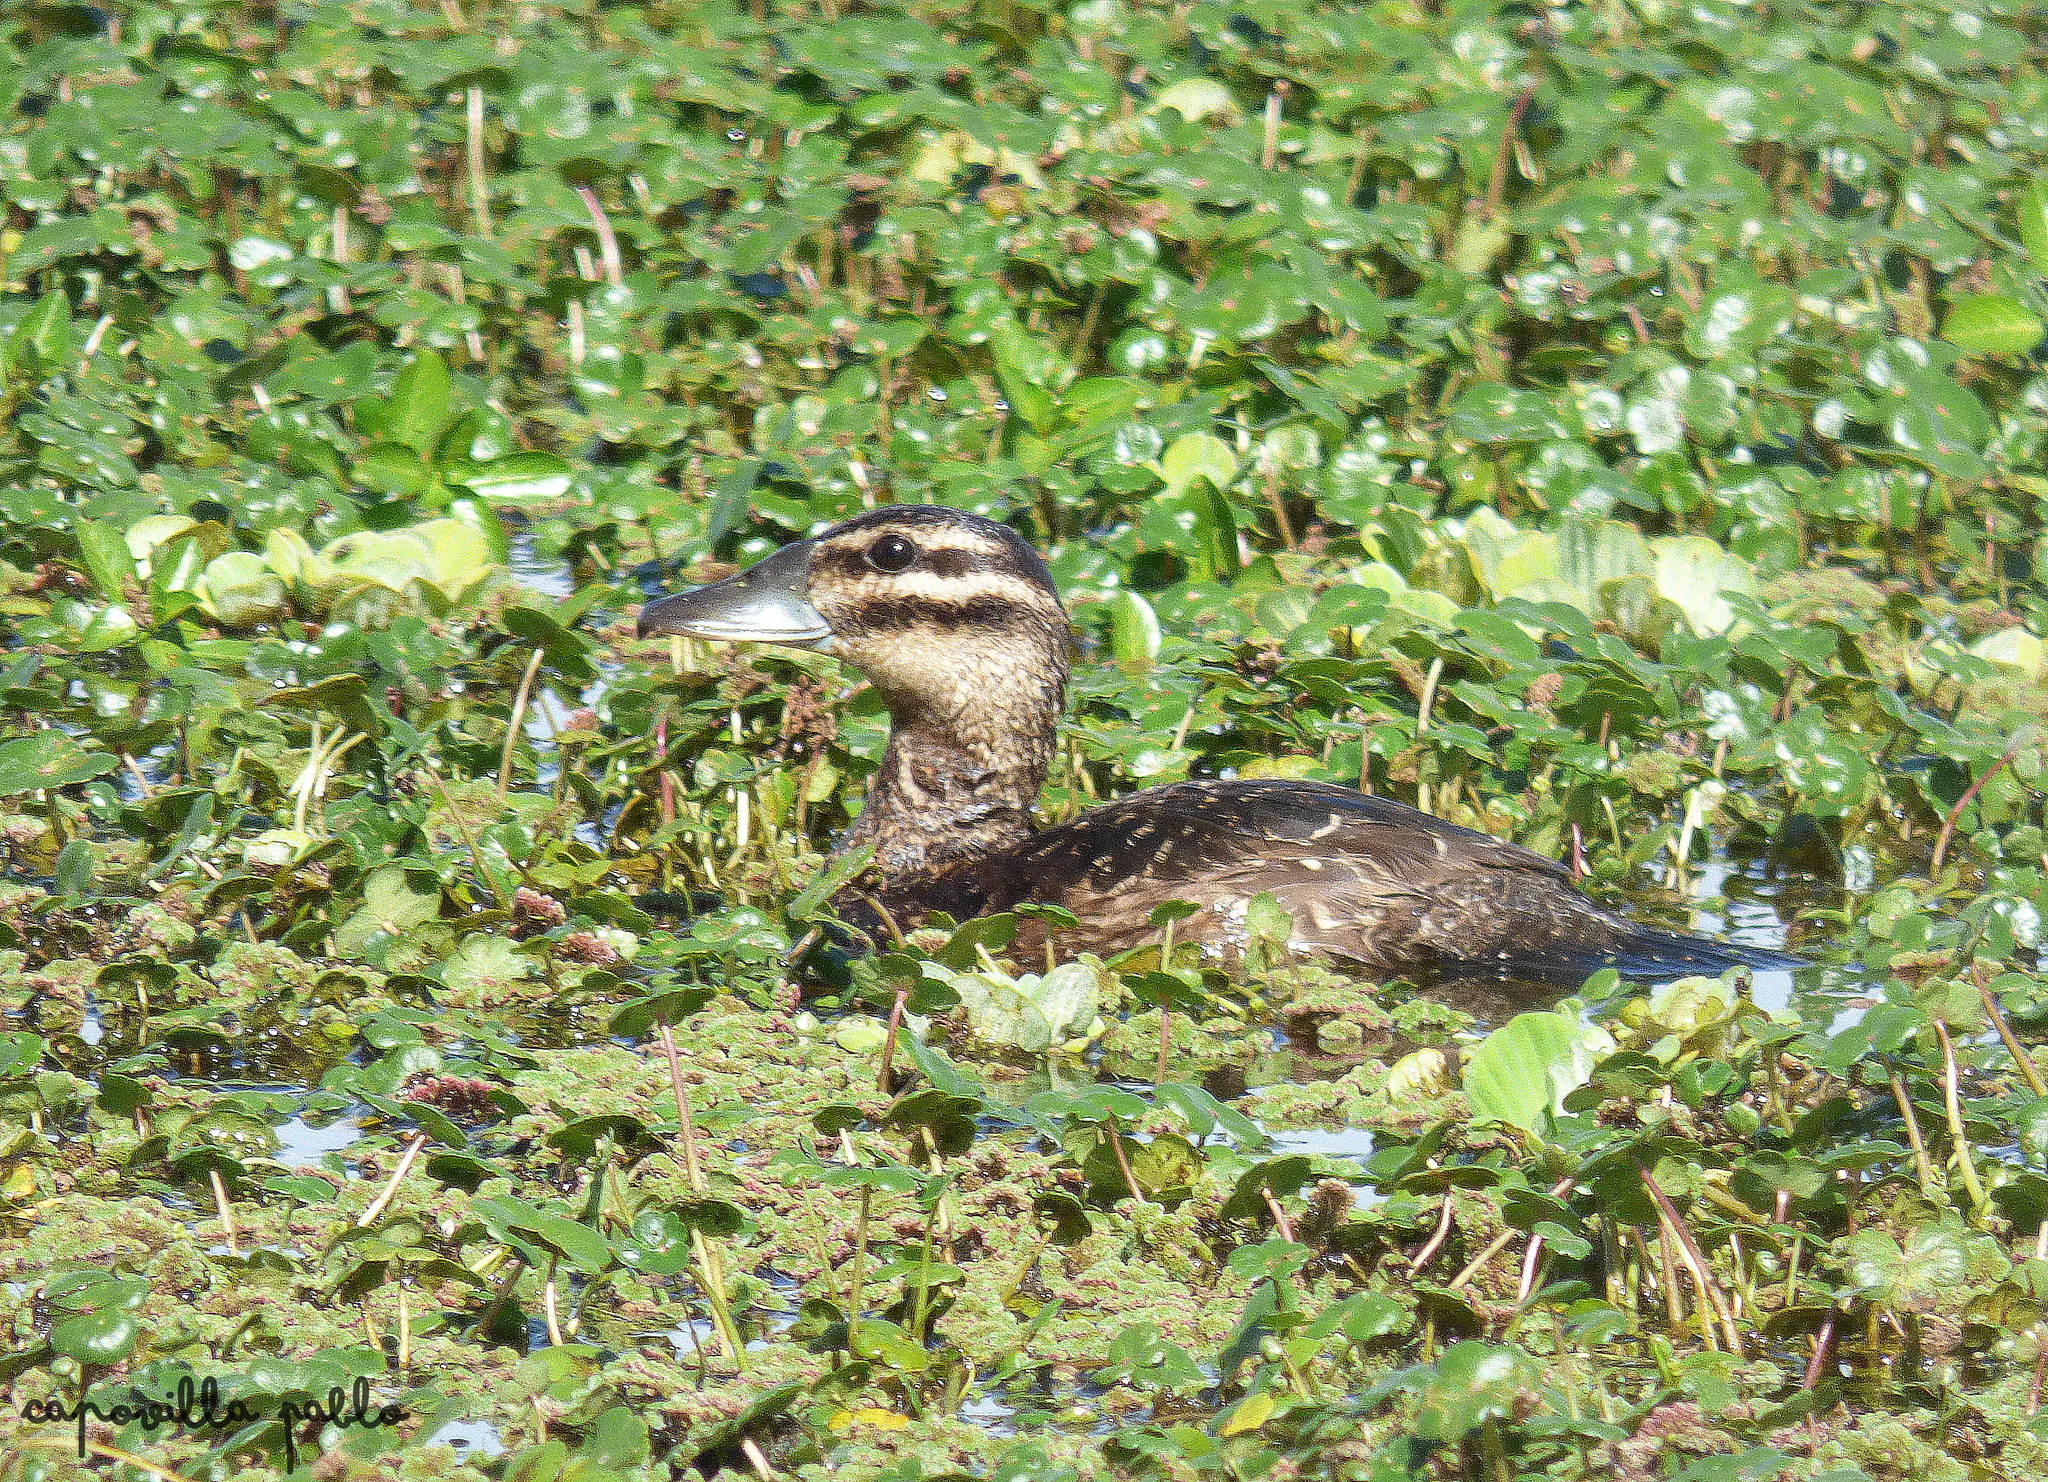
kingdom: Animalia
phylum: Chordata
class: Aves
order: Anseriformes
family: Anatidae
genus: Nomonyx
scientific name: Nomonyx dominicus
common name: Masked duck
